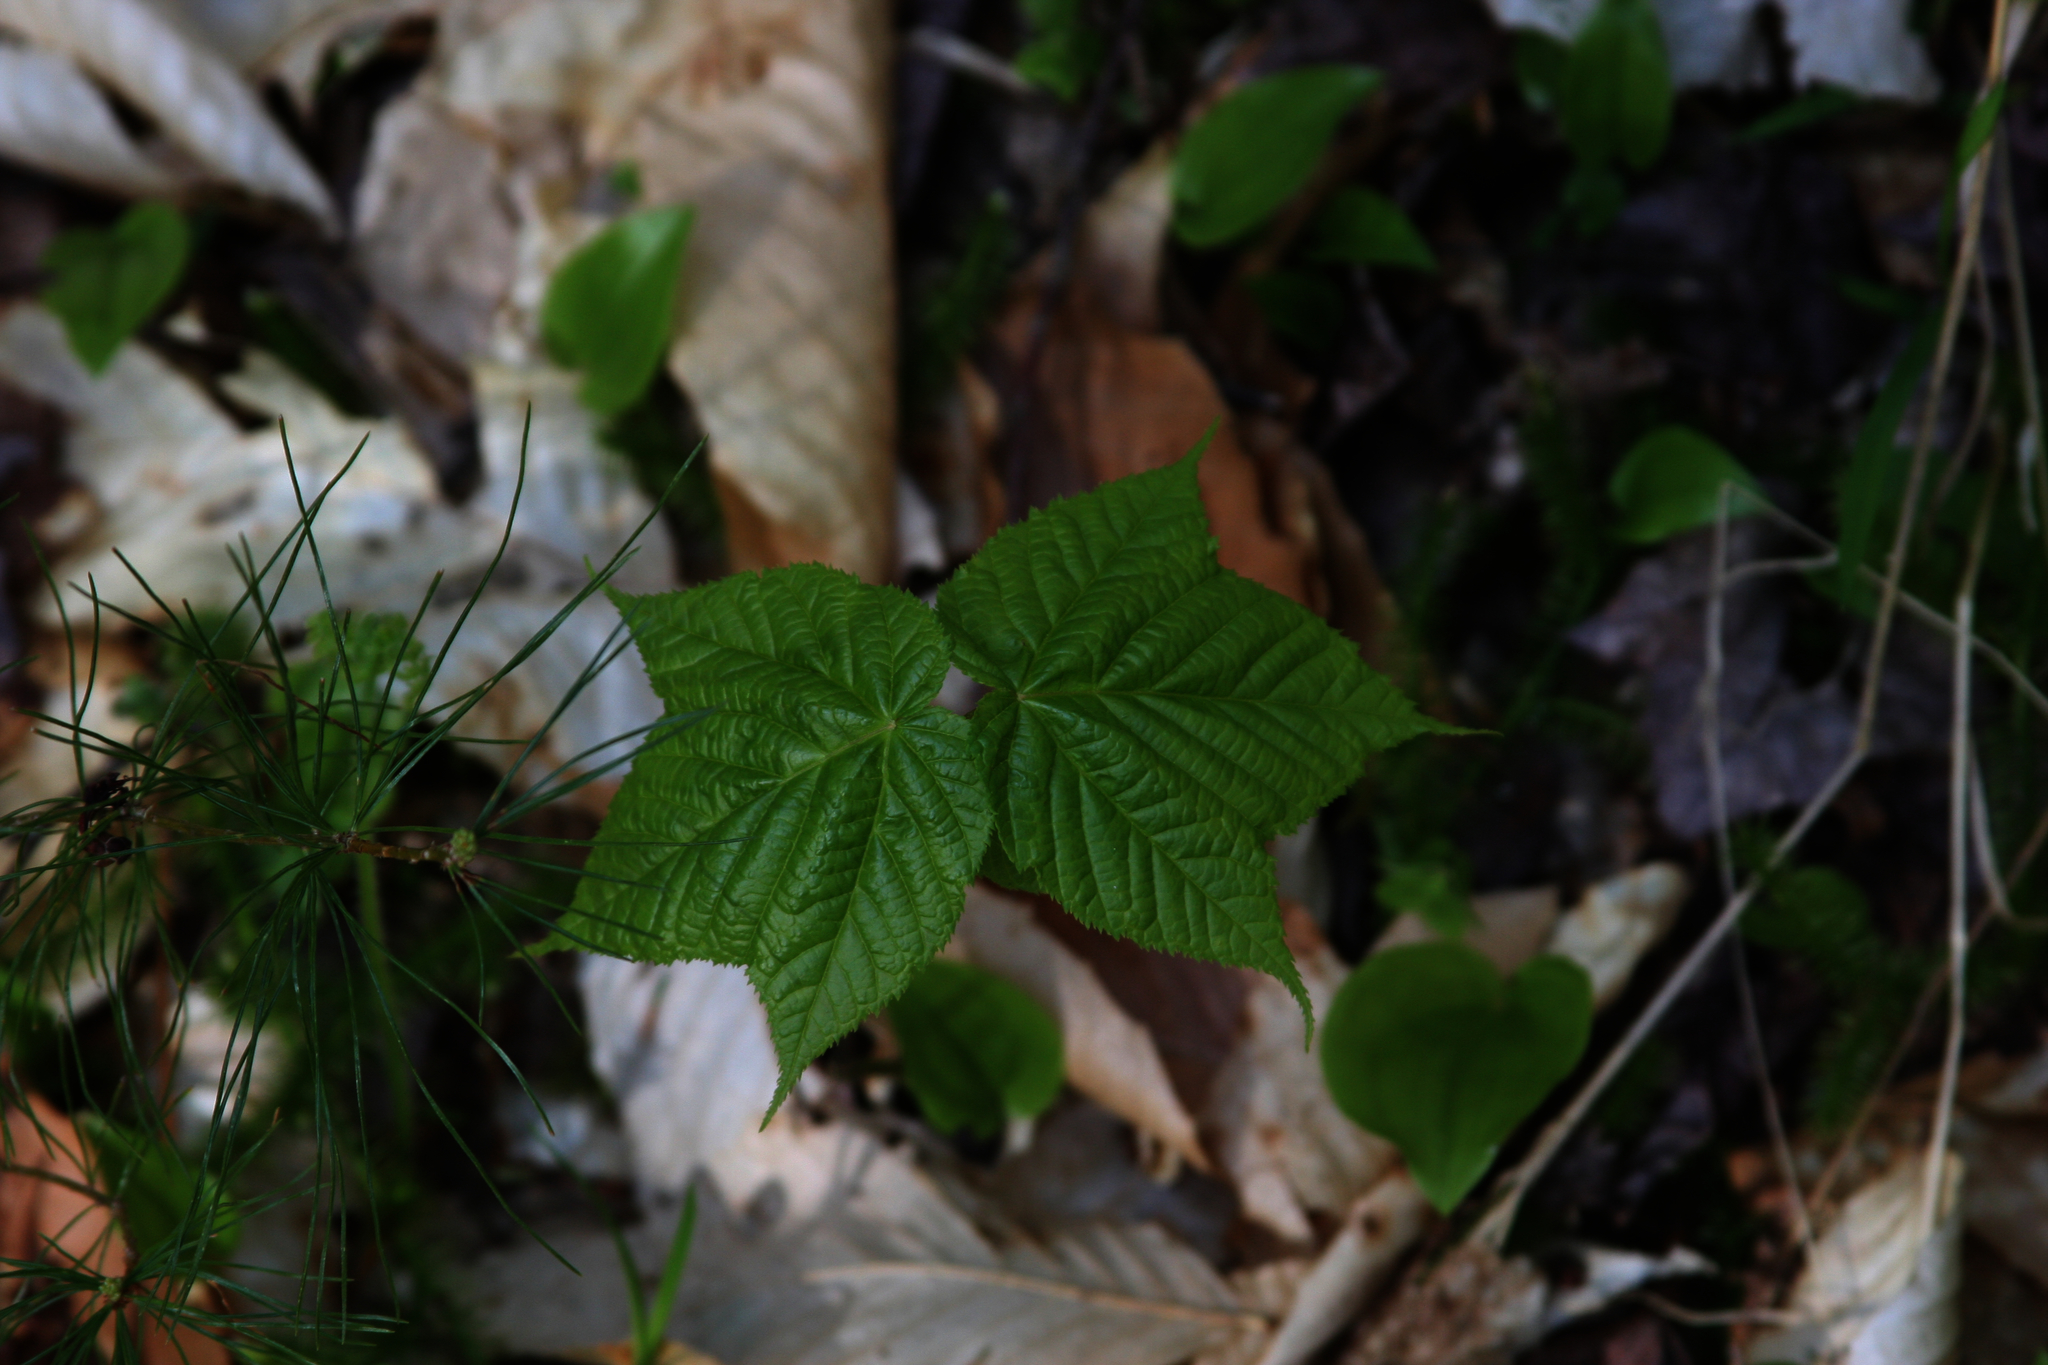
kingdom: Plantae
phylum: Tracheophyta
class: Magnoliopsida
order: Sapindales
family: Sapindaceae
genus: Acer
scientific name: Acer pensylvanicum
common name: Moosewood
